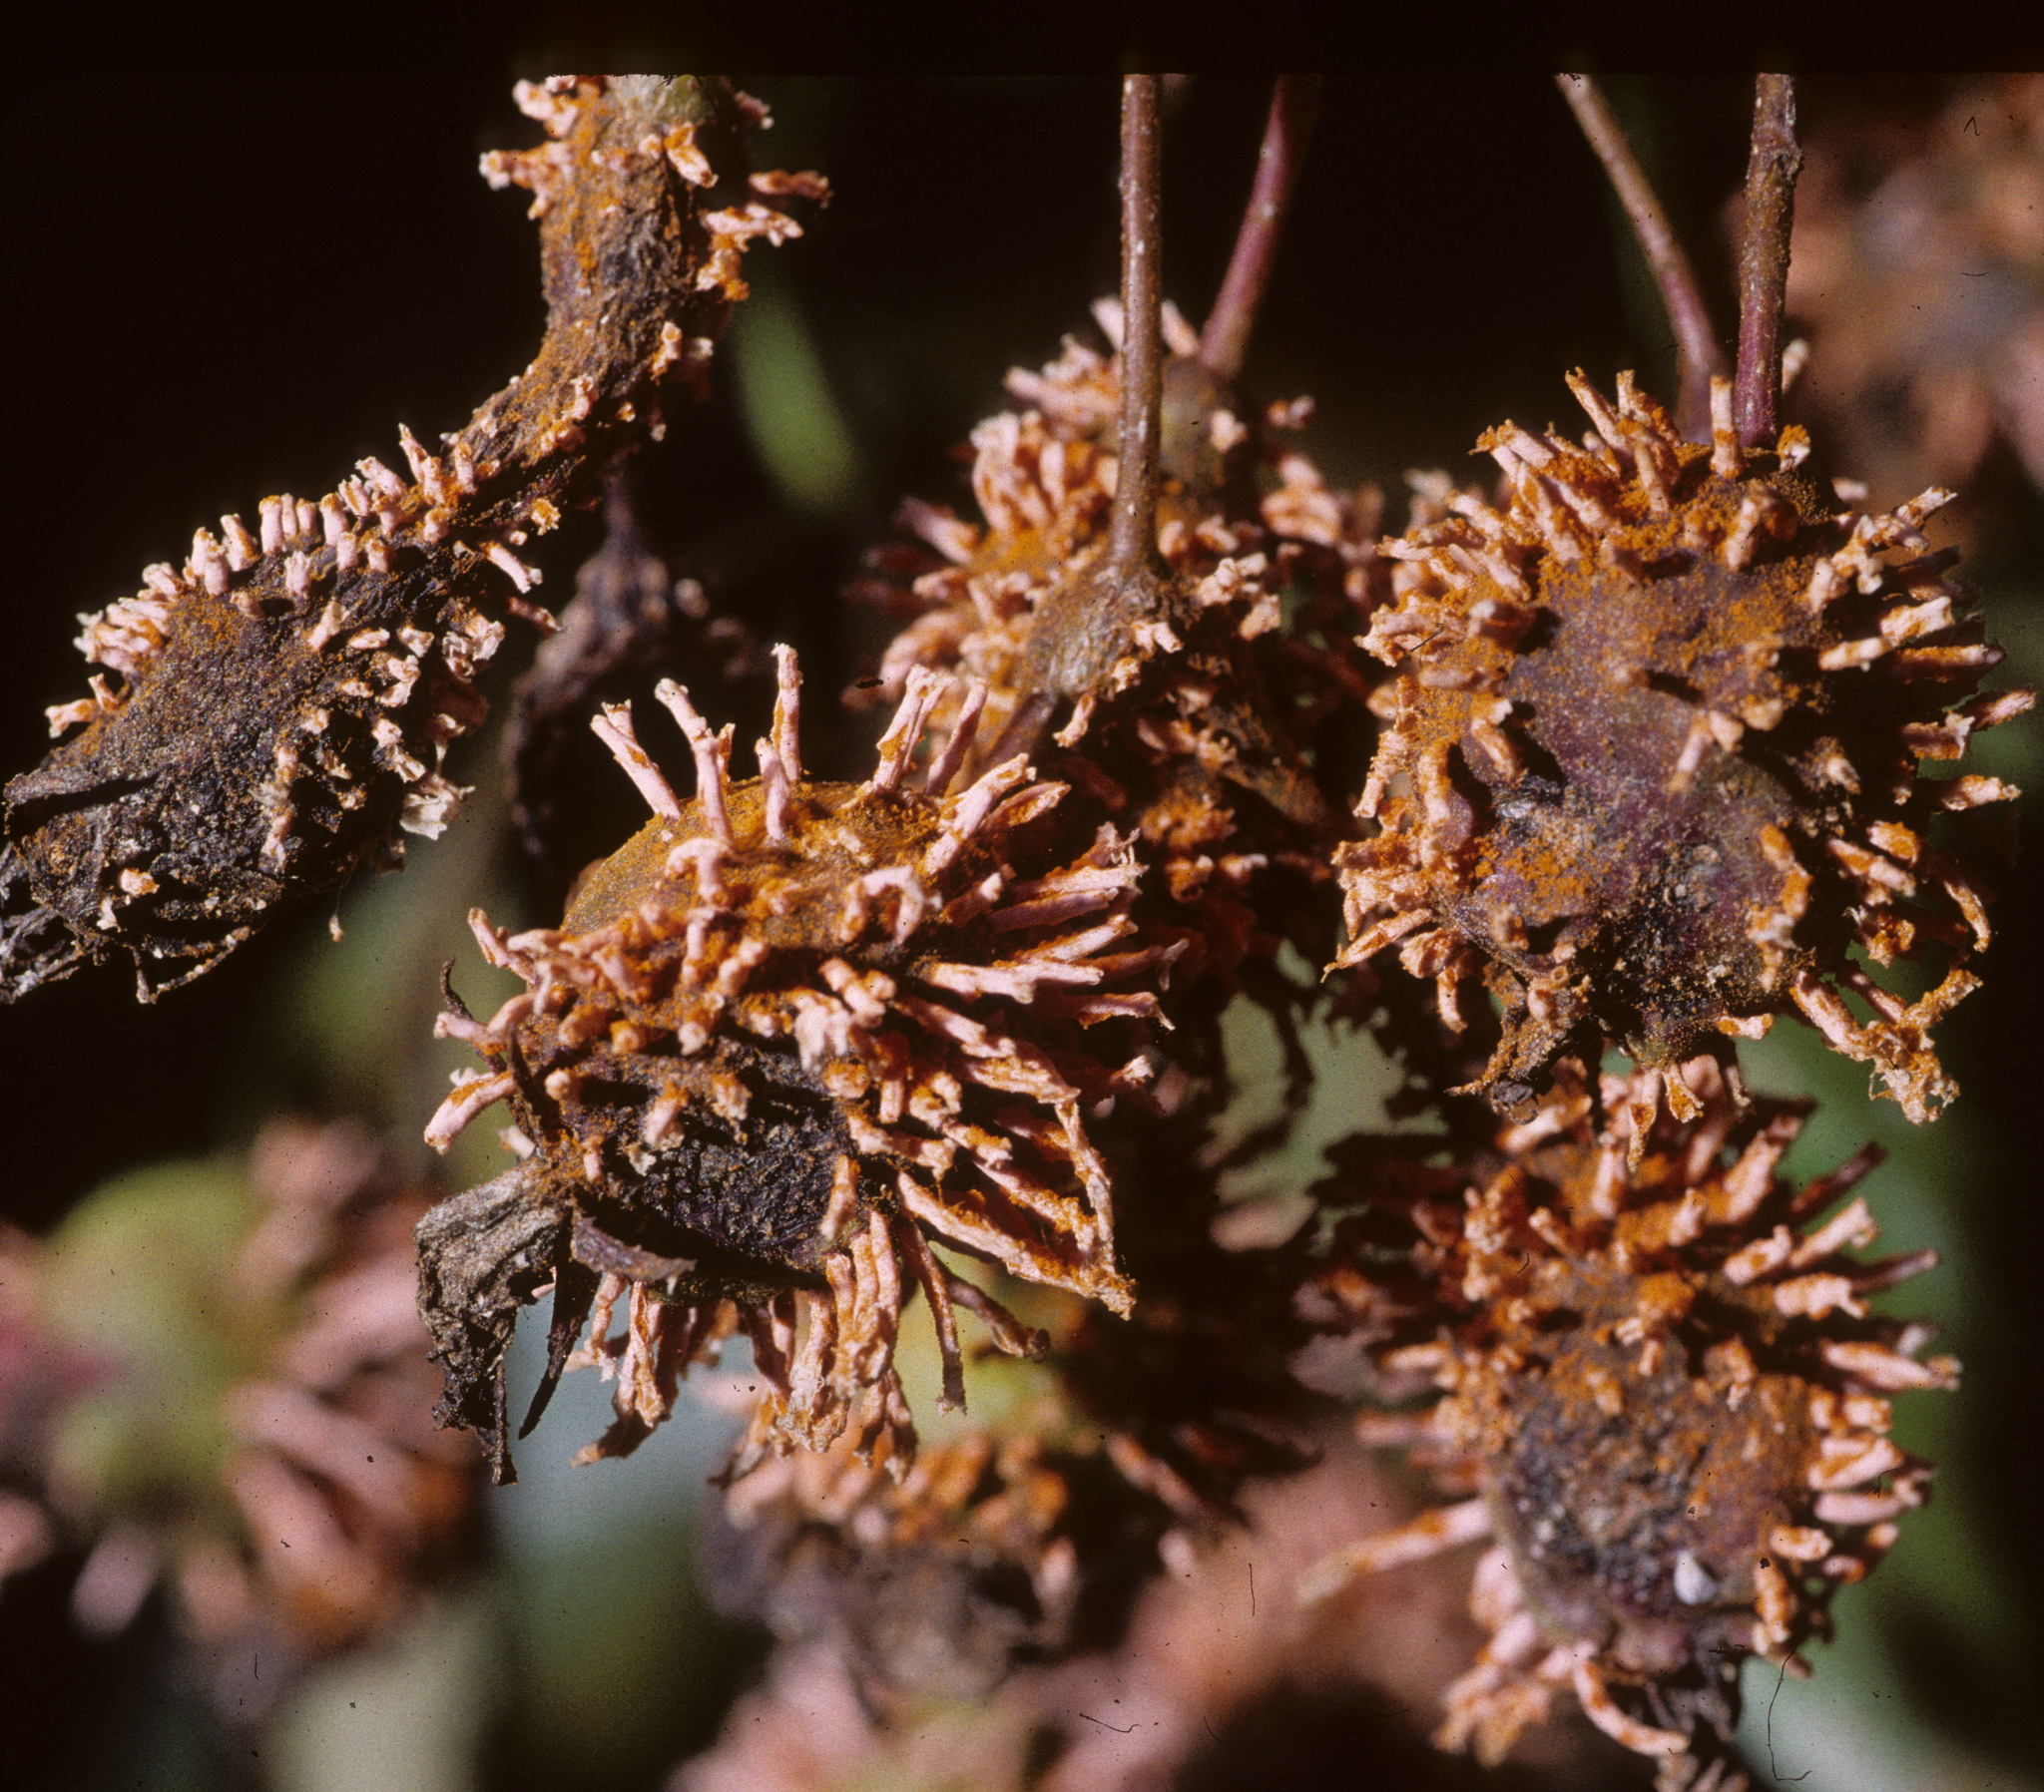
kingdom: Fungi
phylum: Basidiomycota
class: Pucciniomycetes
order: Pucciniales
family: Gymnosporangiaceae
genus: Gymnosporangium
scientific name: Gymnosporangium clavipes
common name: Quince rust
